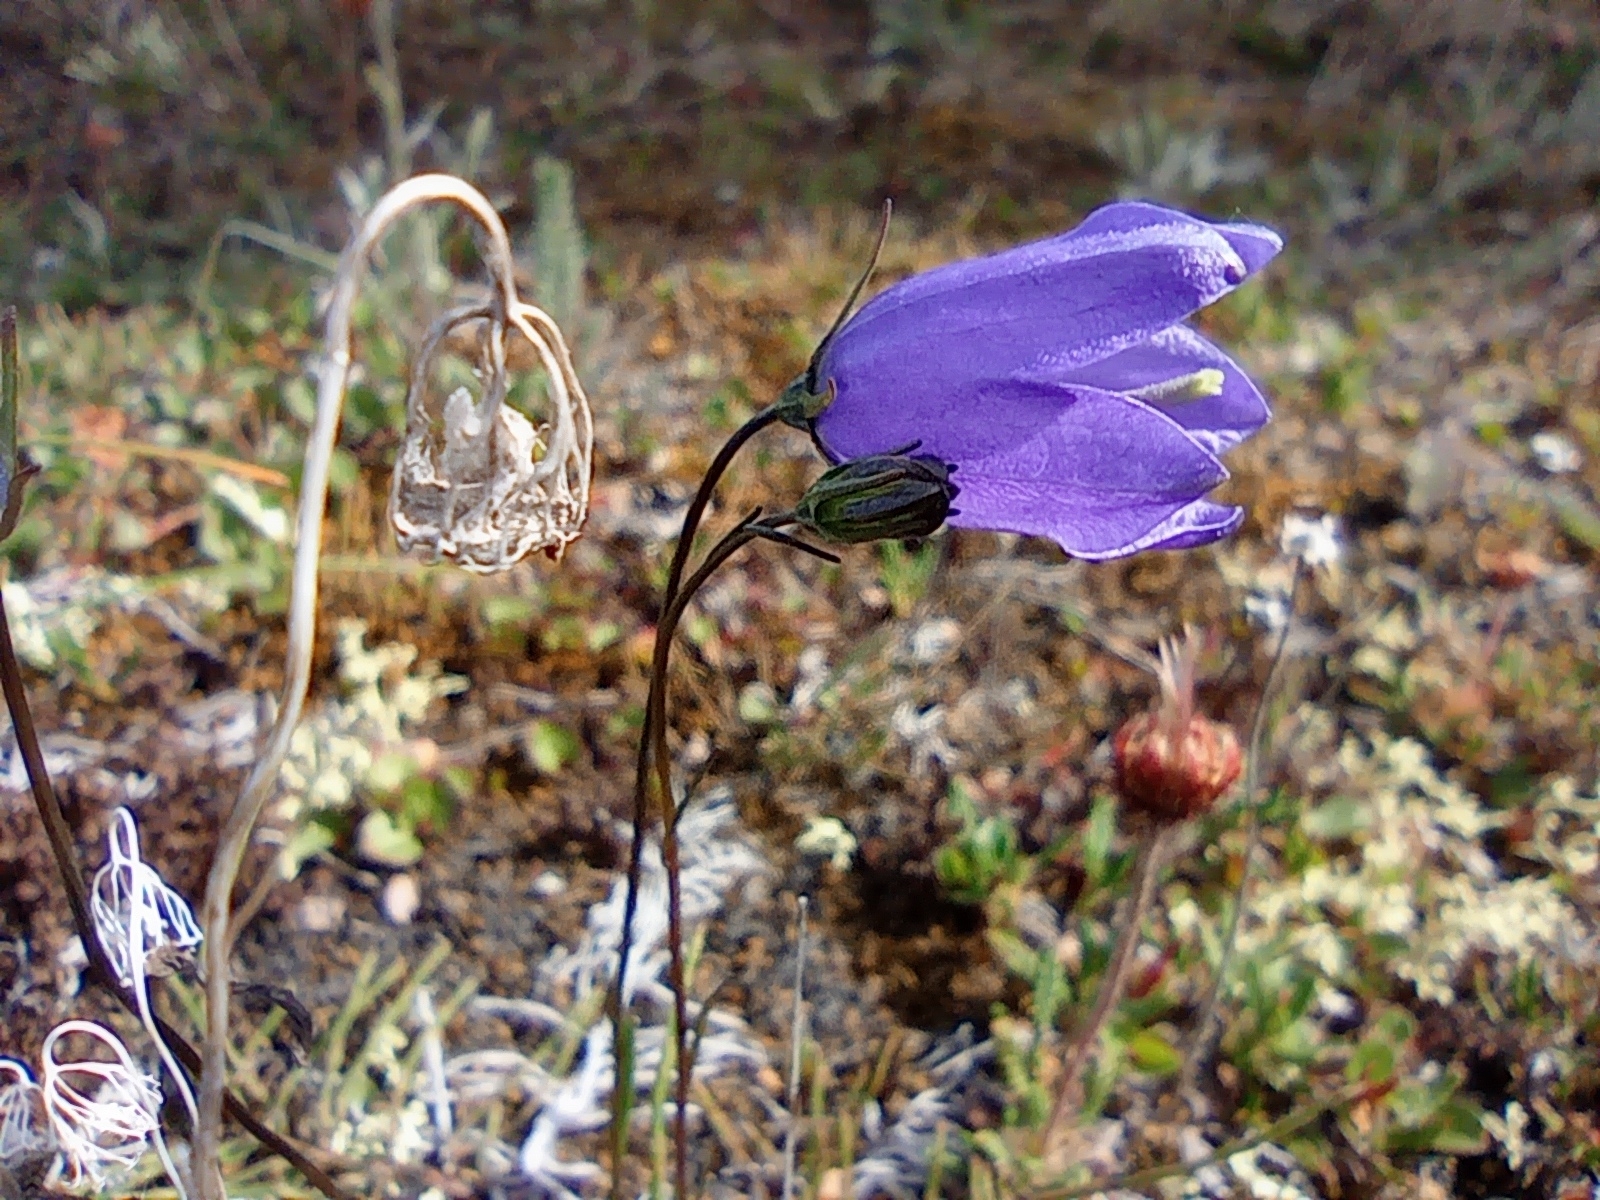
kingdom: Plantae
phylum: Tracheophyta
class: Magnoliopsida
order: Asterales
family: Campanulaceae
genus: Campanula
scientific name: Campanula rotundifolia
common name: Harebell
